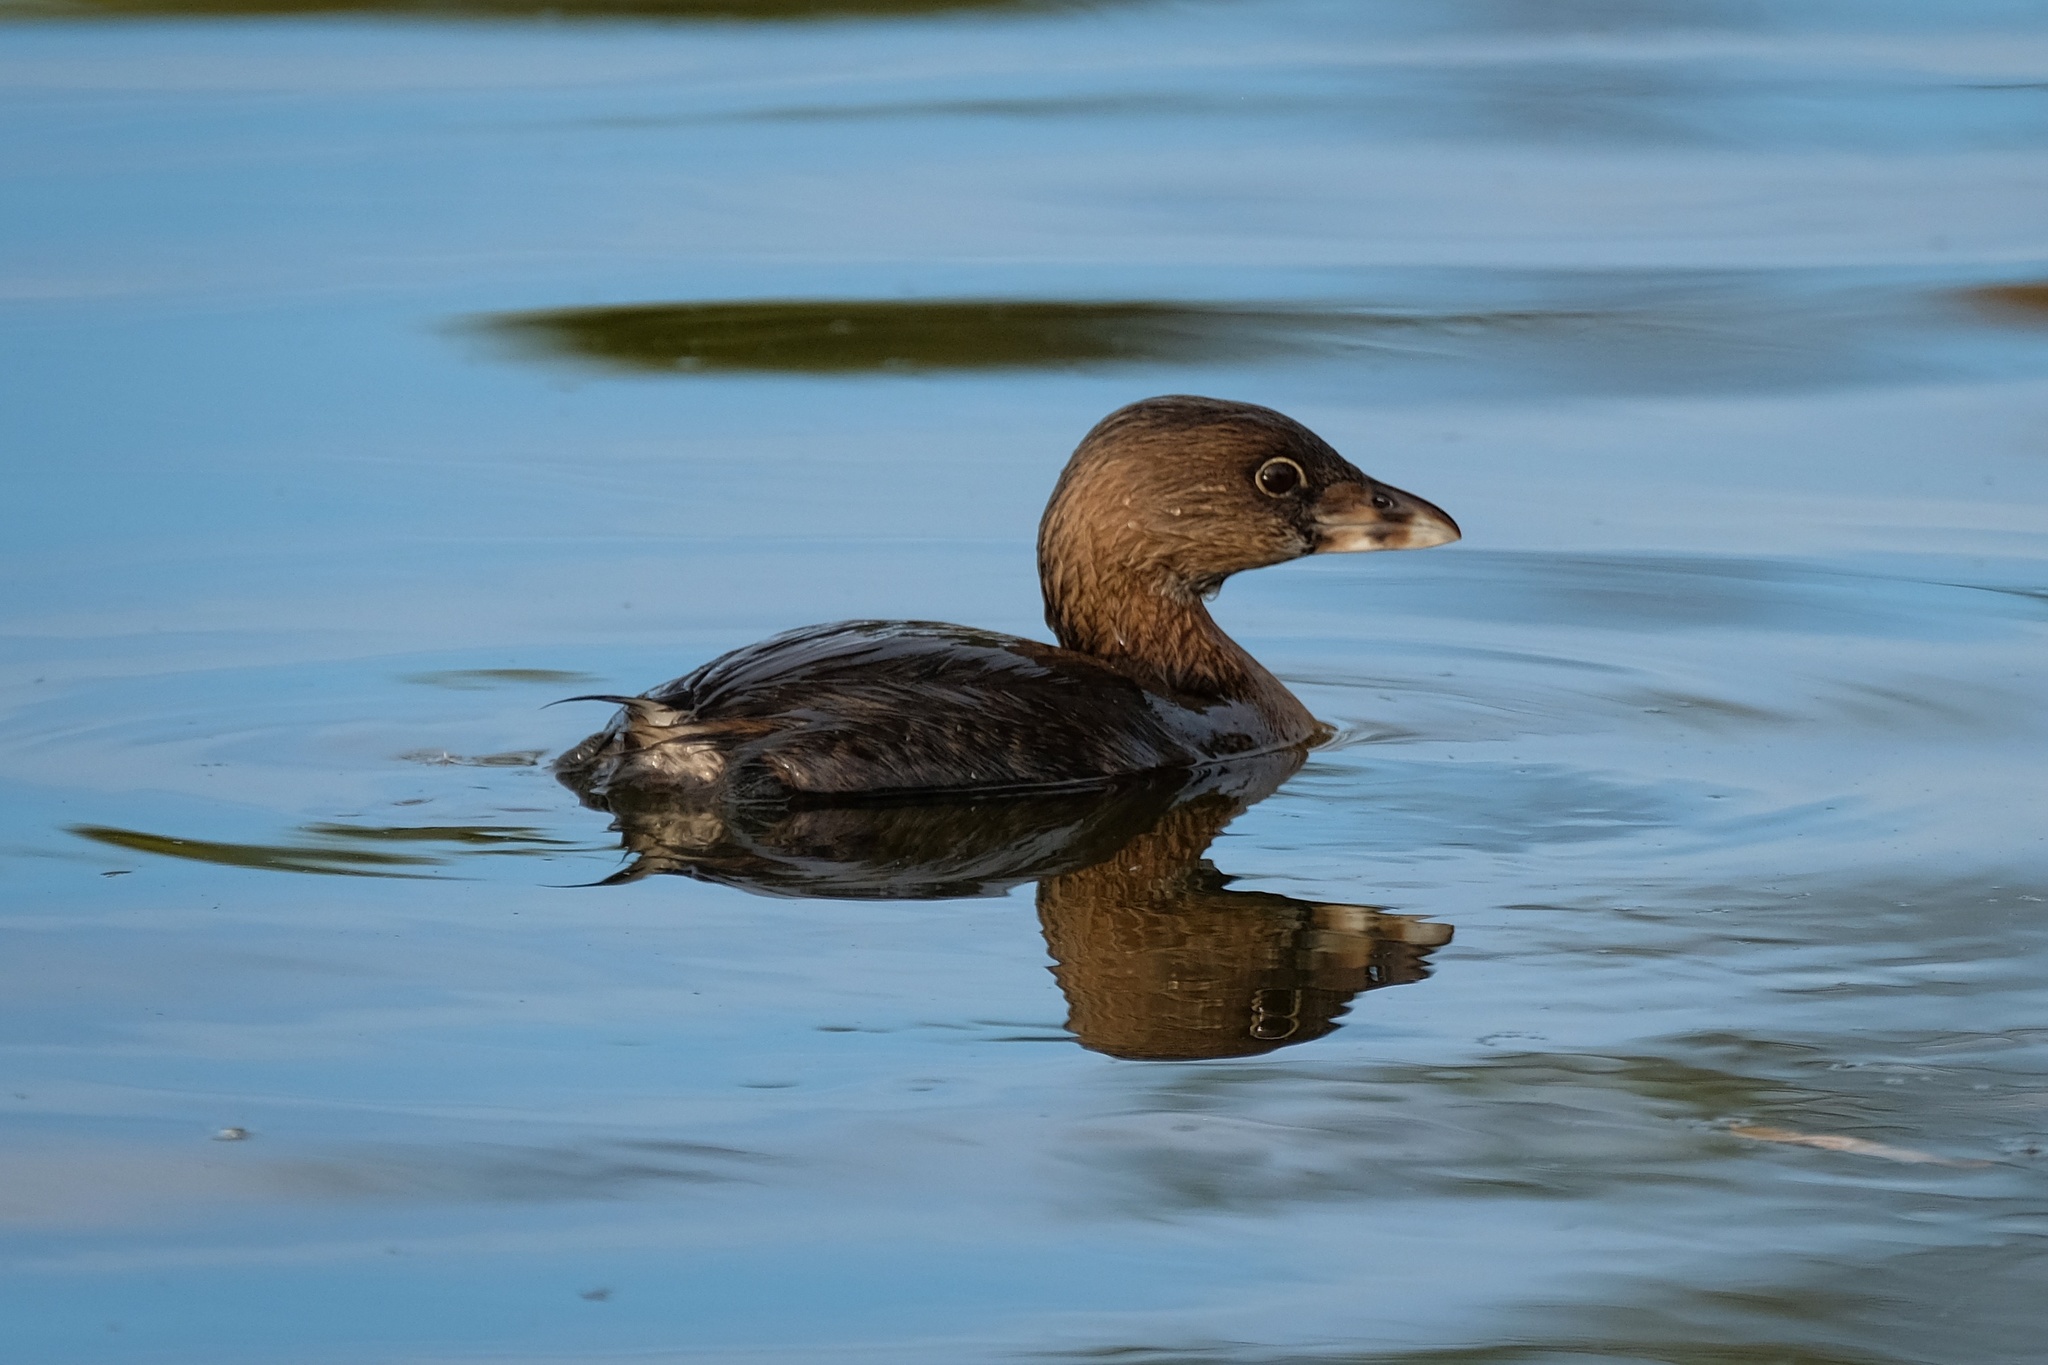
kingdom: Animalia
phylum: Chordata
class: Aves
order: Podicipediformes
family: Podicipedidae
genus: Podilymbus
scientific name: Podilymbus podiceps
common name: Pied-billed grebe
